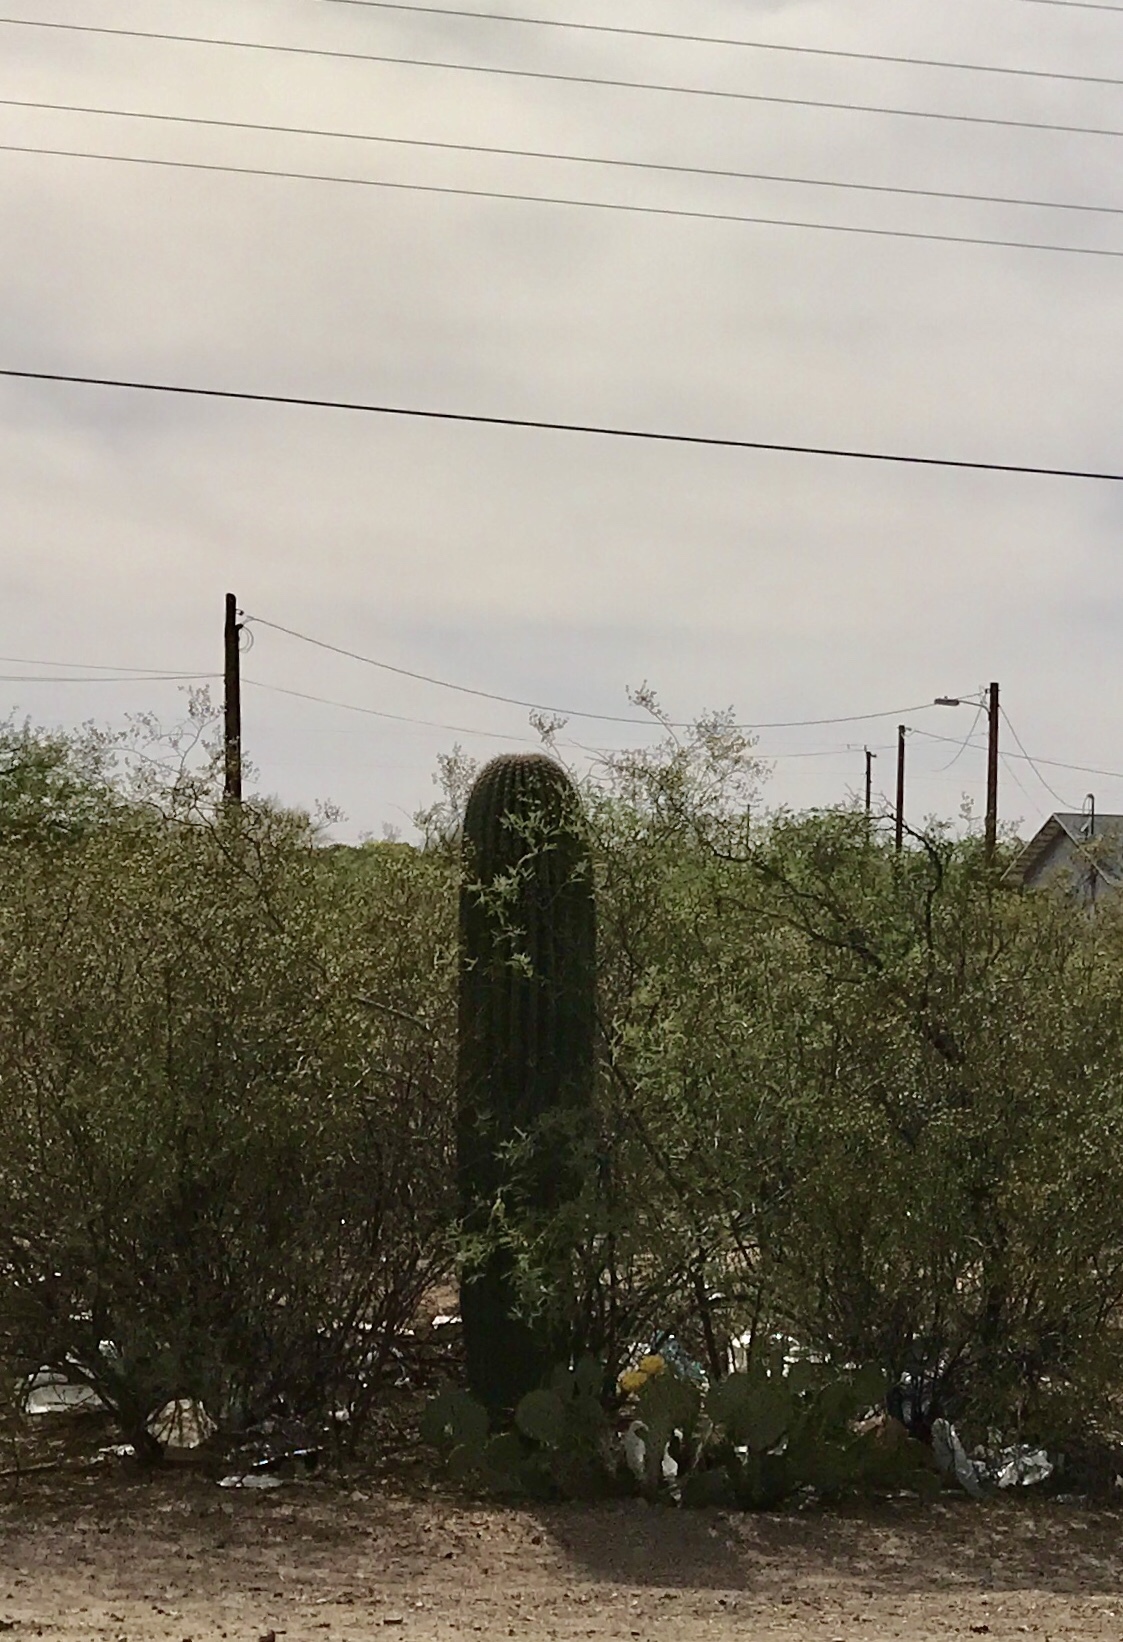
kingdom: Plantae
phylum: Tracheophyta
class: Magnoliopsida
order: Caryophyllales
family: Cactaceae
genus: Carnegiea
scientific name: Carnegiea gigantea
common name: Saguaro
